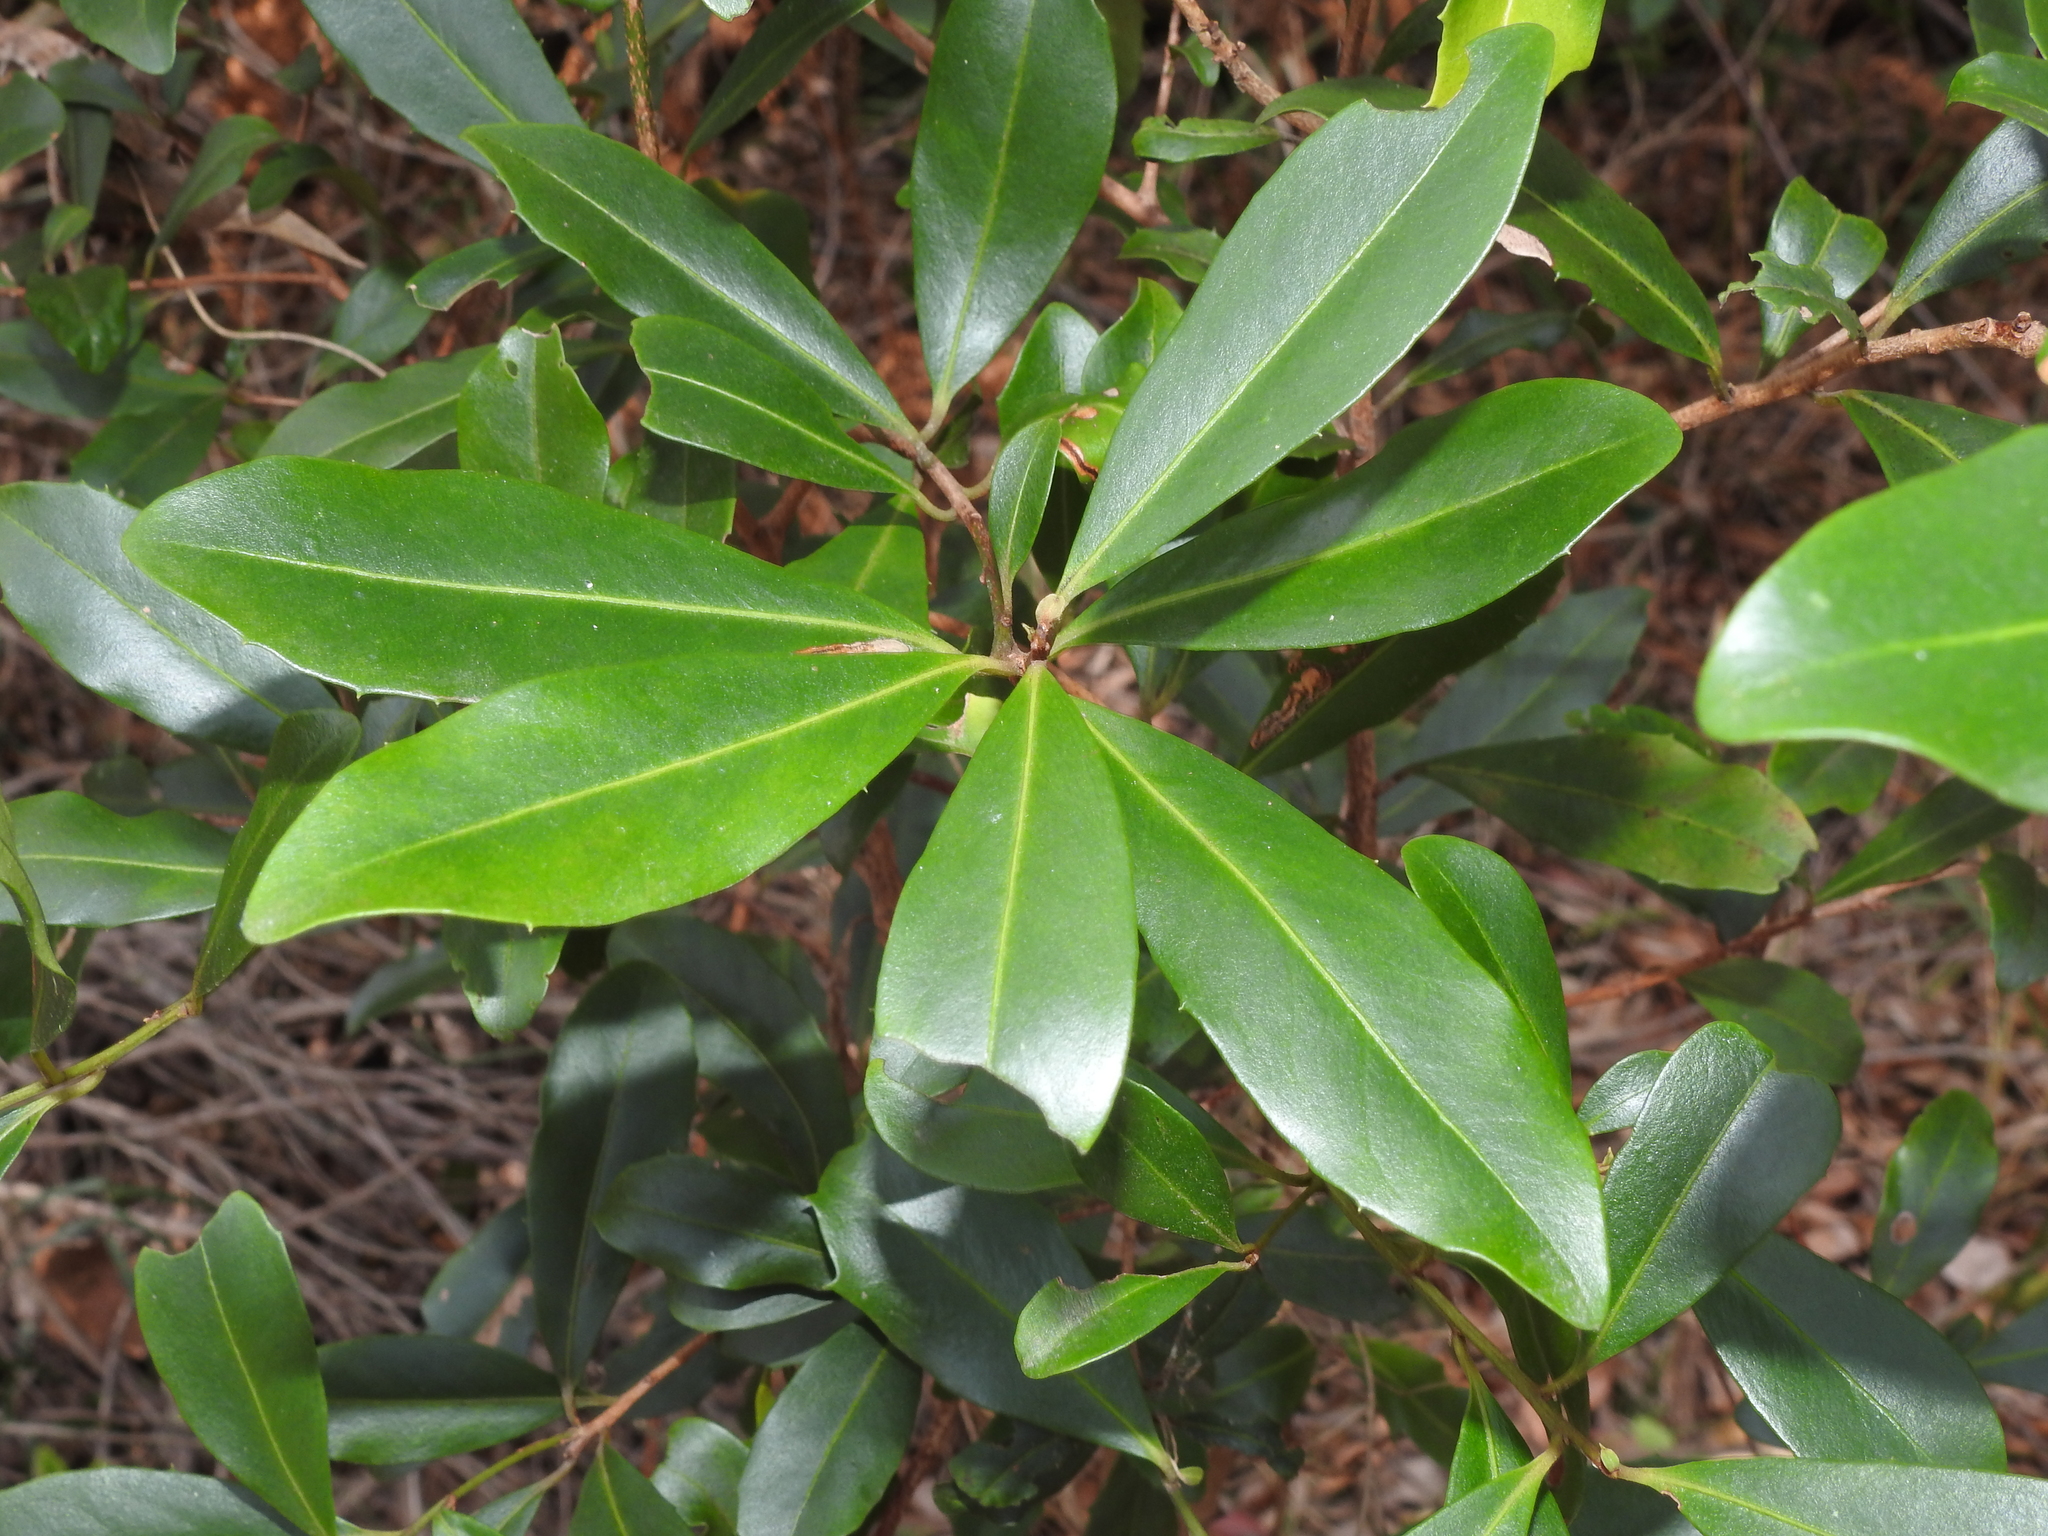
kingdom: Plantae
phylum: Tracheophyta
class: Magnoliopsida
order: Ericales
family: Primulaceae
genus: Myrsine
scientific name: Myrsine variabilis
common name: Brush muttonwood
